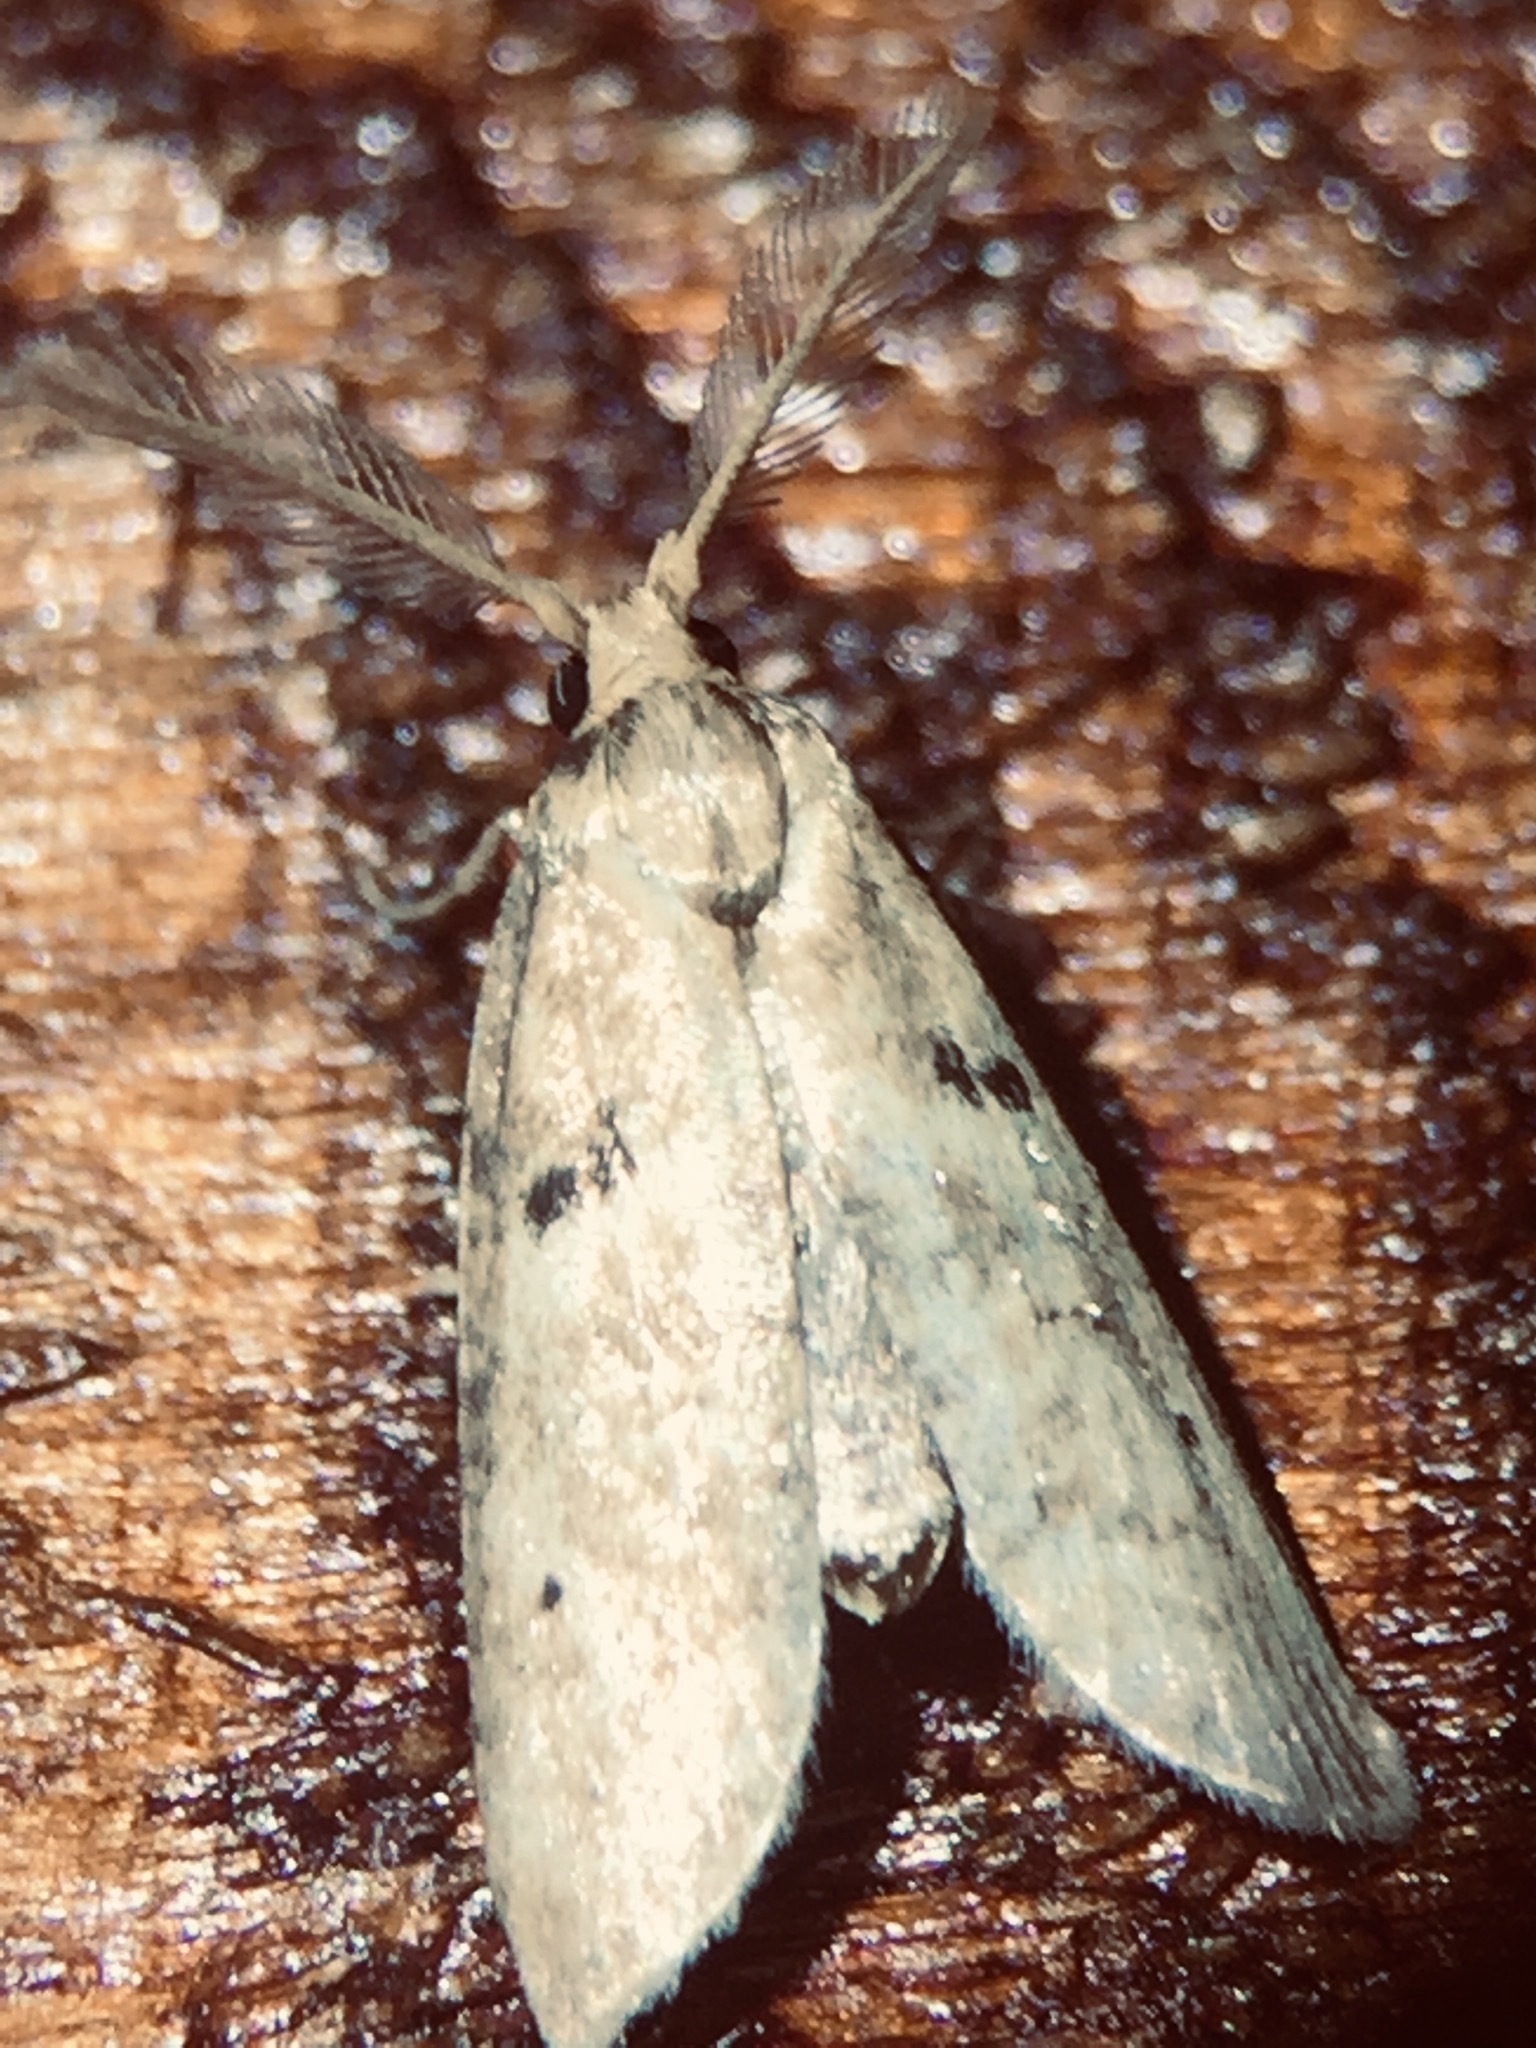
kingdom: Animalia
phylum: Arthropoda
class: Insecta
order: Lepidoptera
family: Galacticidae
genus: Tanaoctena
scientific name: Tanaoctena dubia
